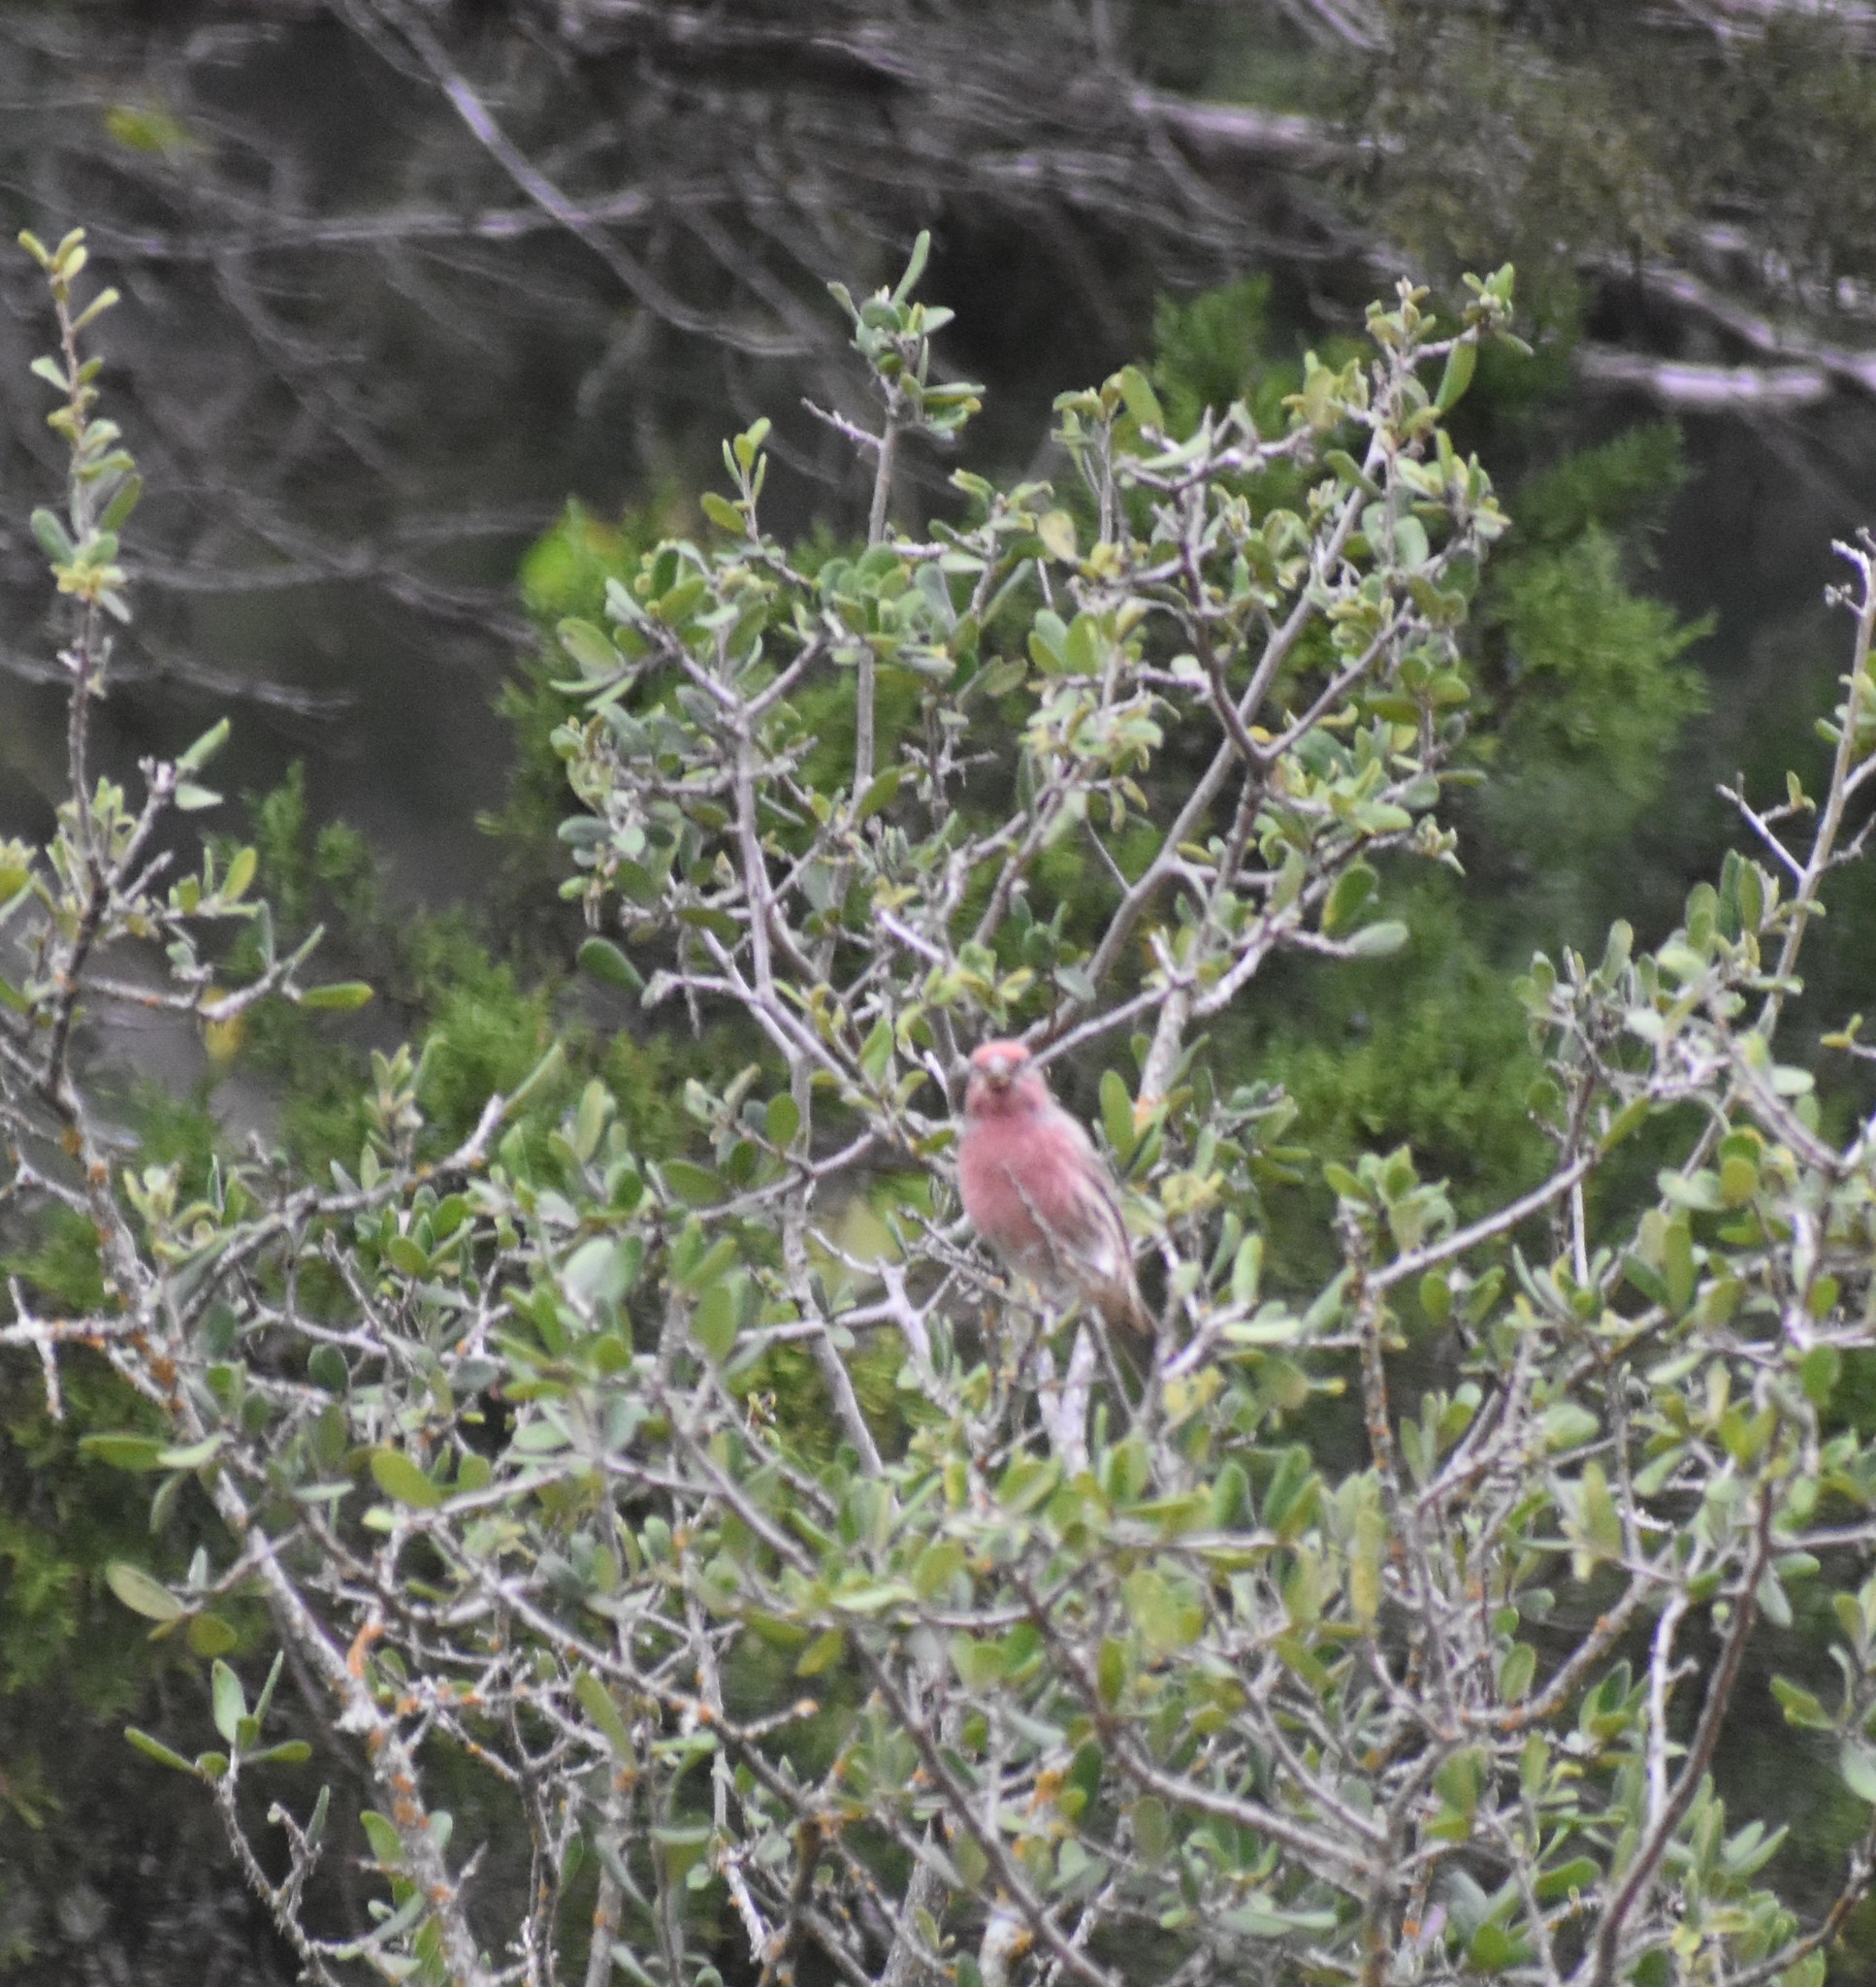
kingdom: Animalia
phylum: Chordata
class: Aves
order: Passeriformes
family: Fringillidae
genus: Haemorhous
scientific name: Haemorhous mexicanus
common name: House finch
